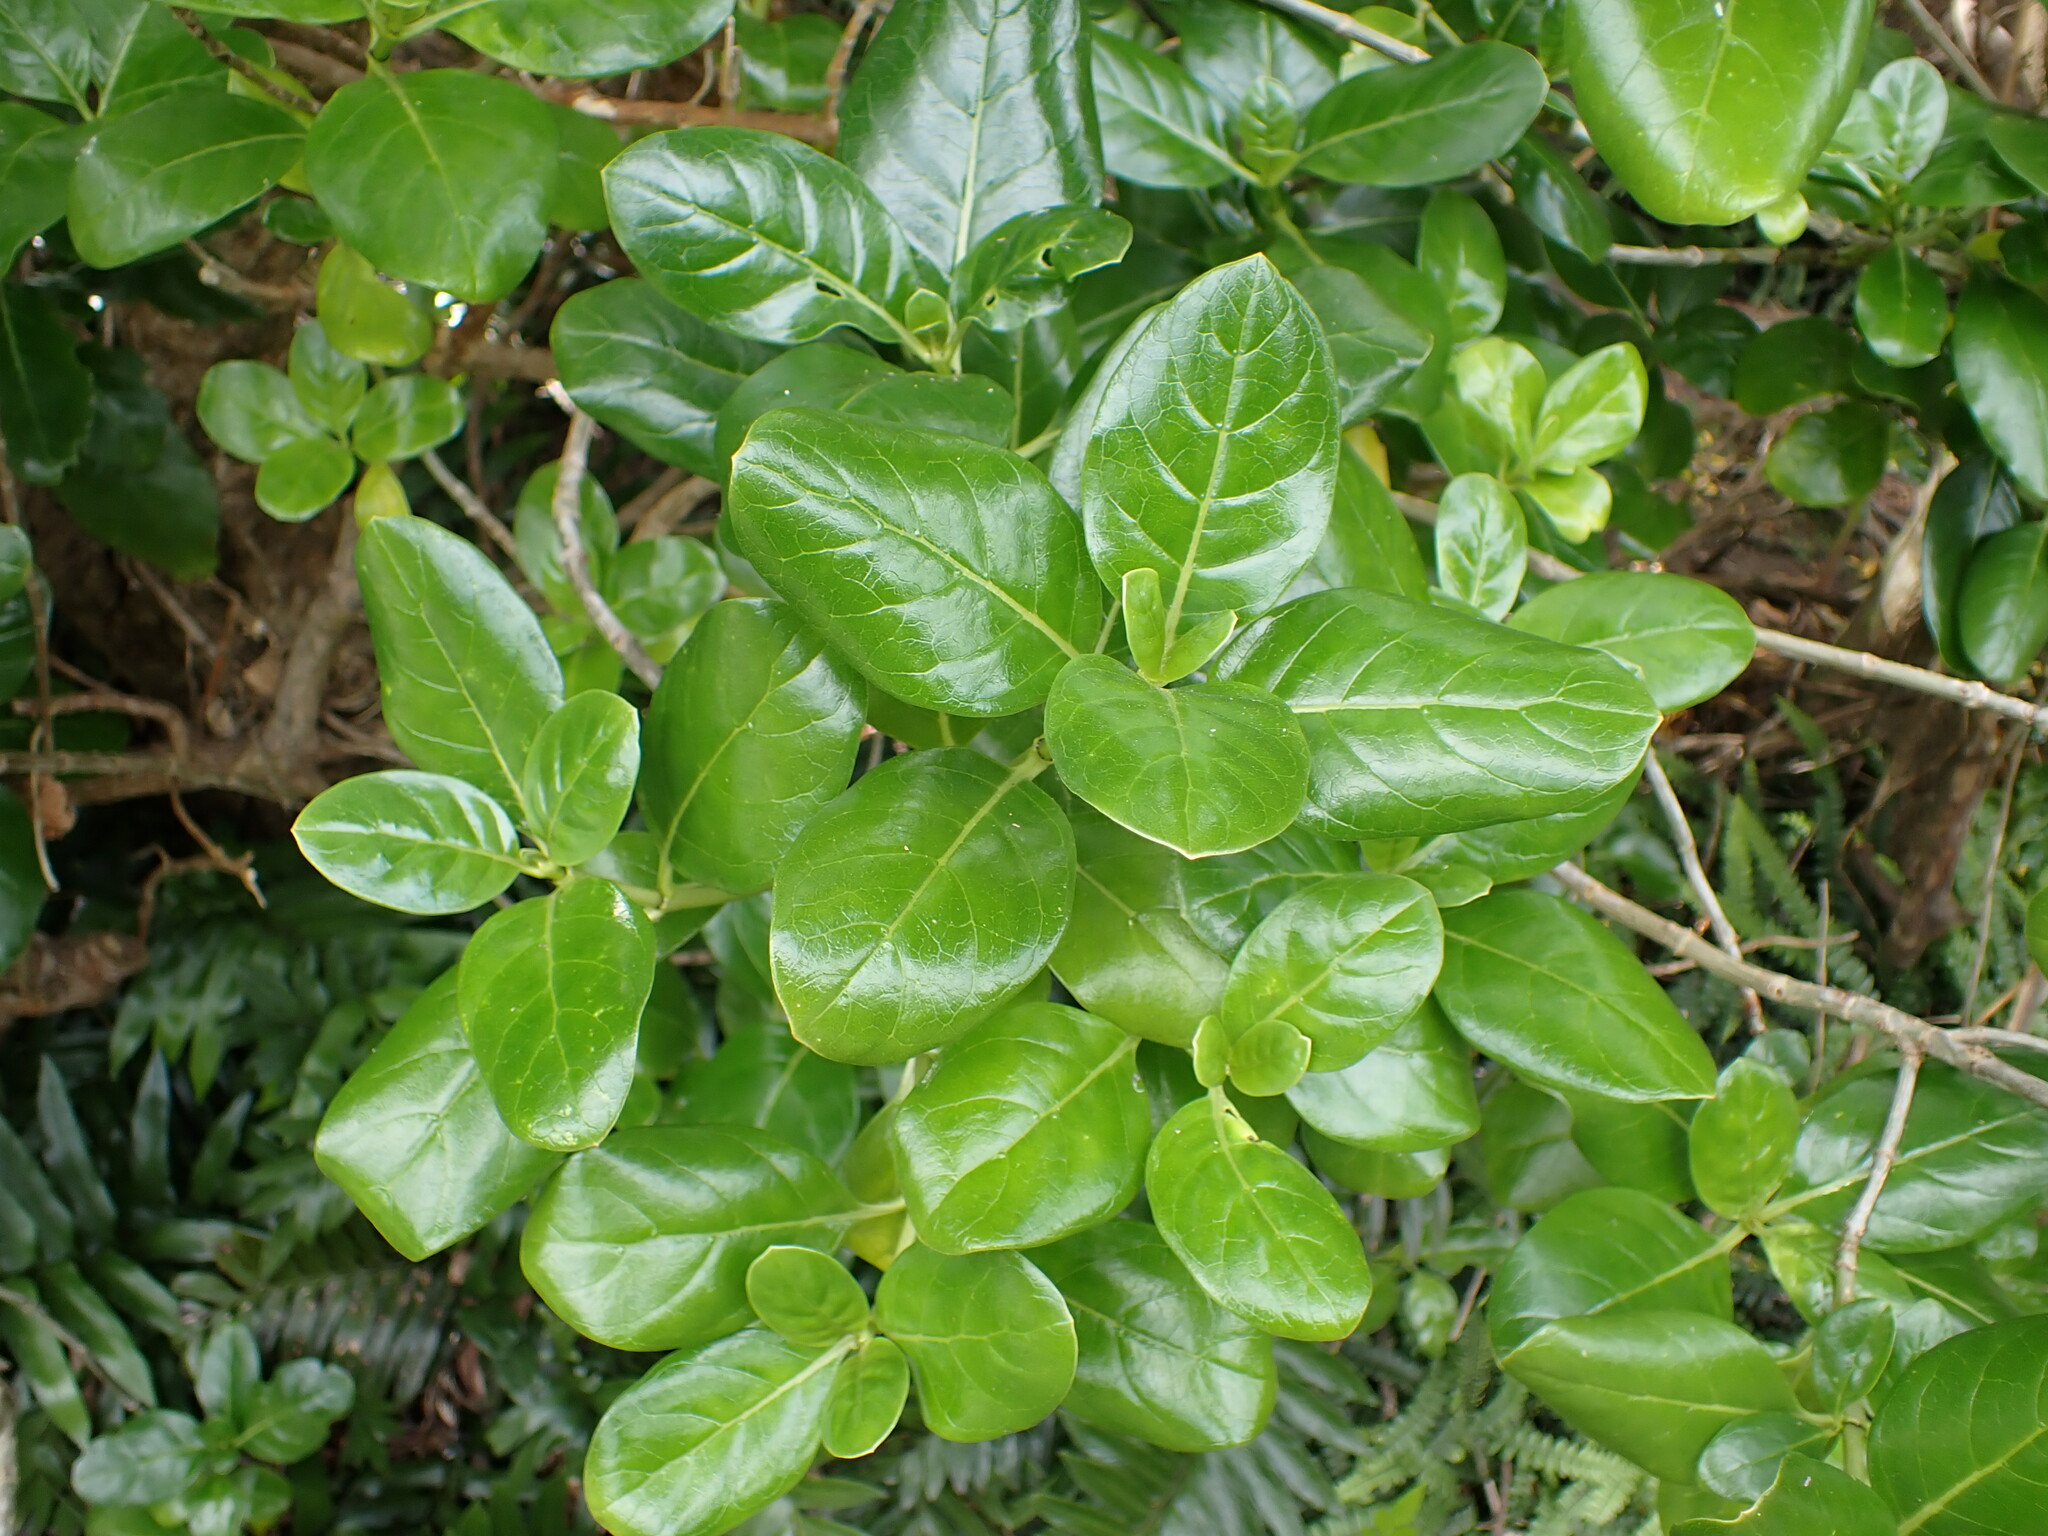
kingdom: Plantae
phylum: Tracheophyta
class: Magnoliopsida
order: Gentianales
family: Rubiaceae
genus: Coprosma
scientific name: Coprosma repens
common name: Tree bedstraw
